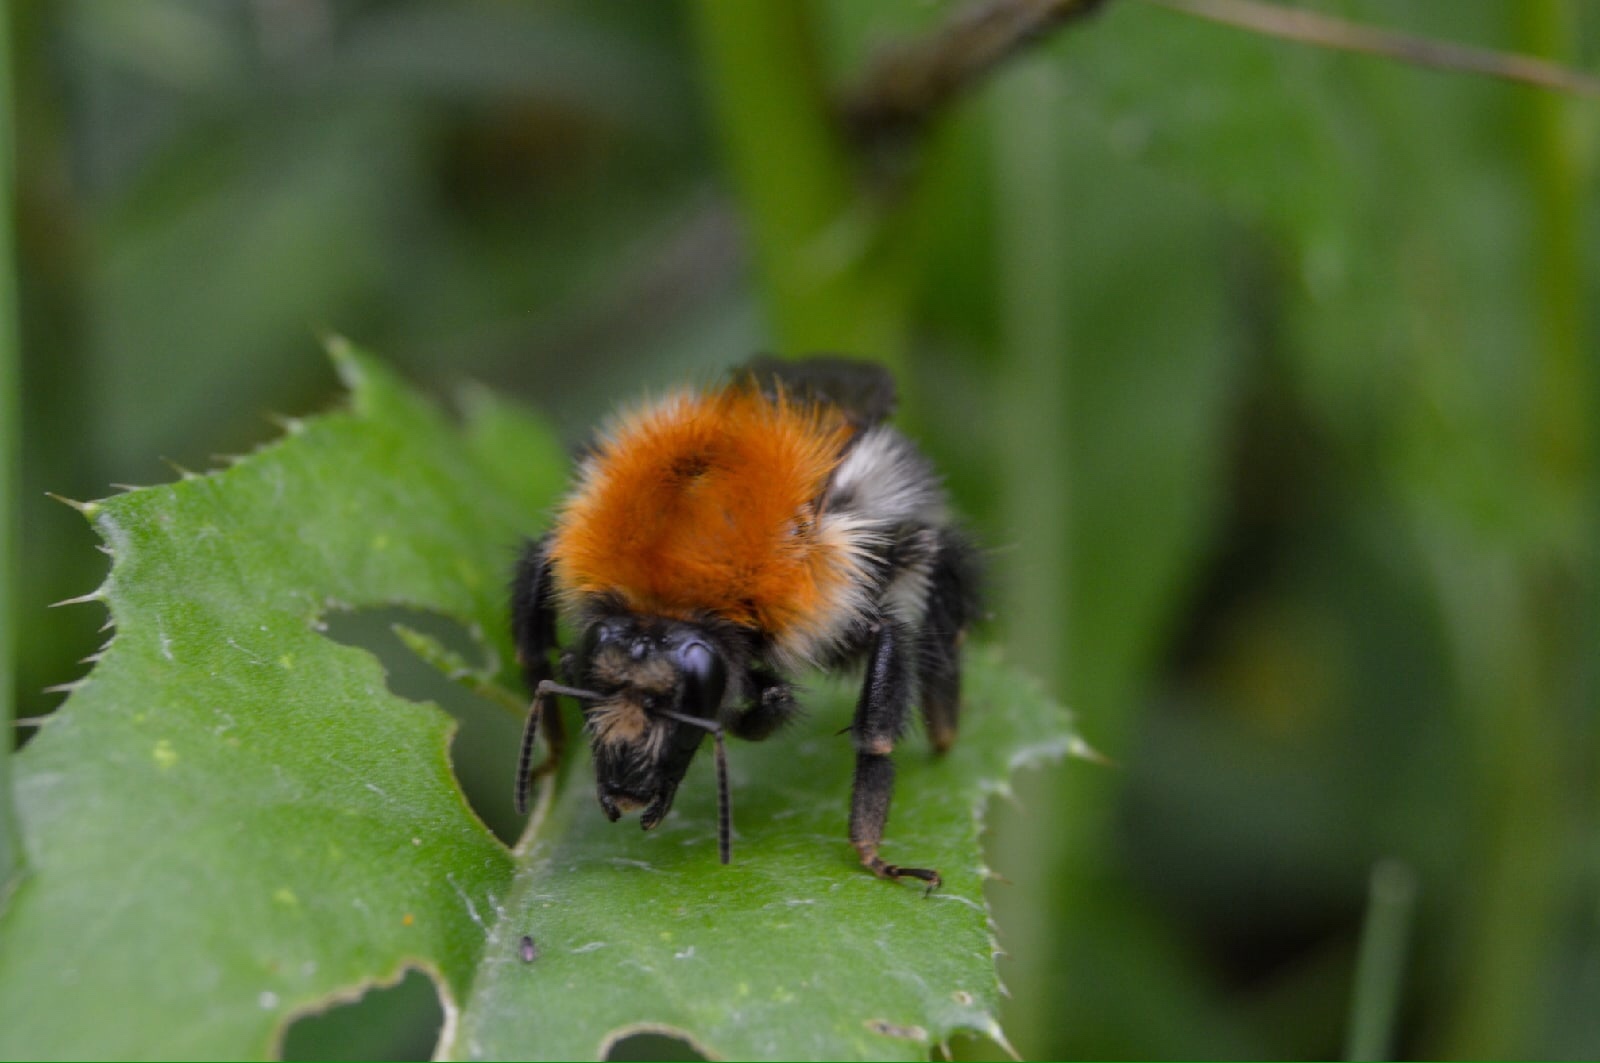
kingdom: Animalia
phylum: Arthropoda
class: Insecta
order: Hymenoptera
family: Apidae
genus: Bombus
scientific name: Bombus pascuorum
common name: Common carder bee
